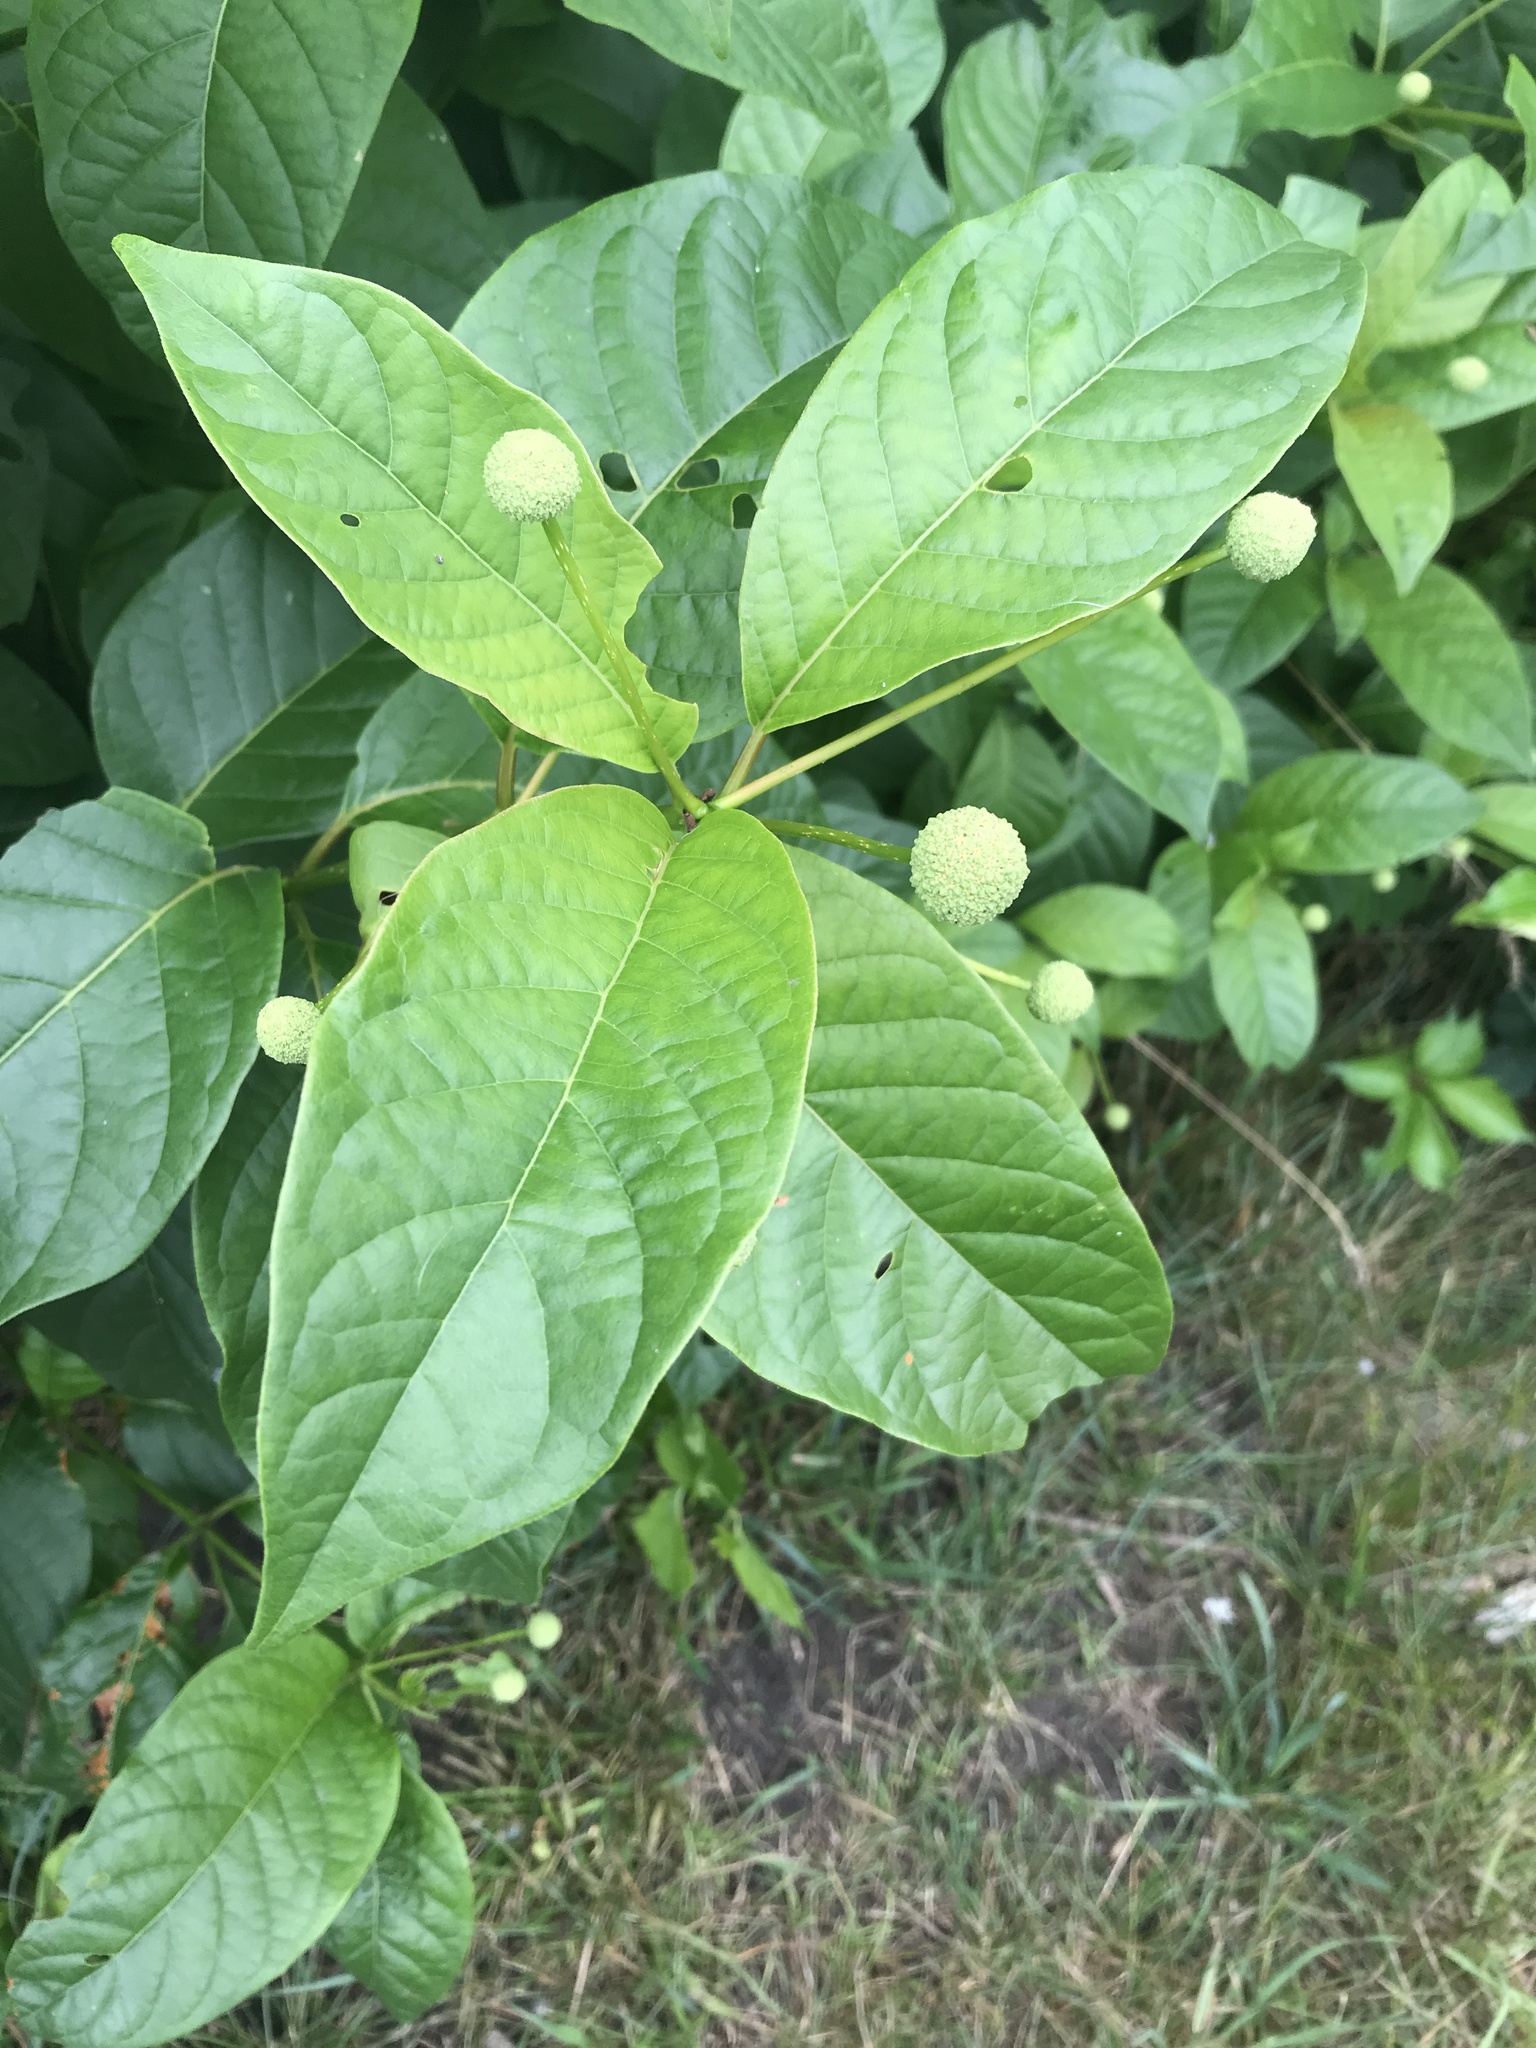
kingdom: Plantae
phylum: Tracheophyta
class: Magnoliopsida
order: Gentianales
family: Rubiaceae
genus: Cephalanthus
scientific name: Cephalanthus occidentalis
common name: Button-willow
